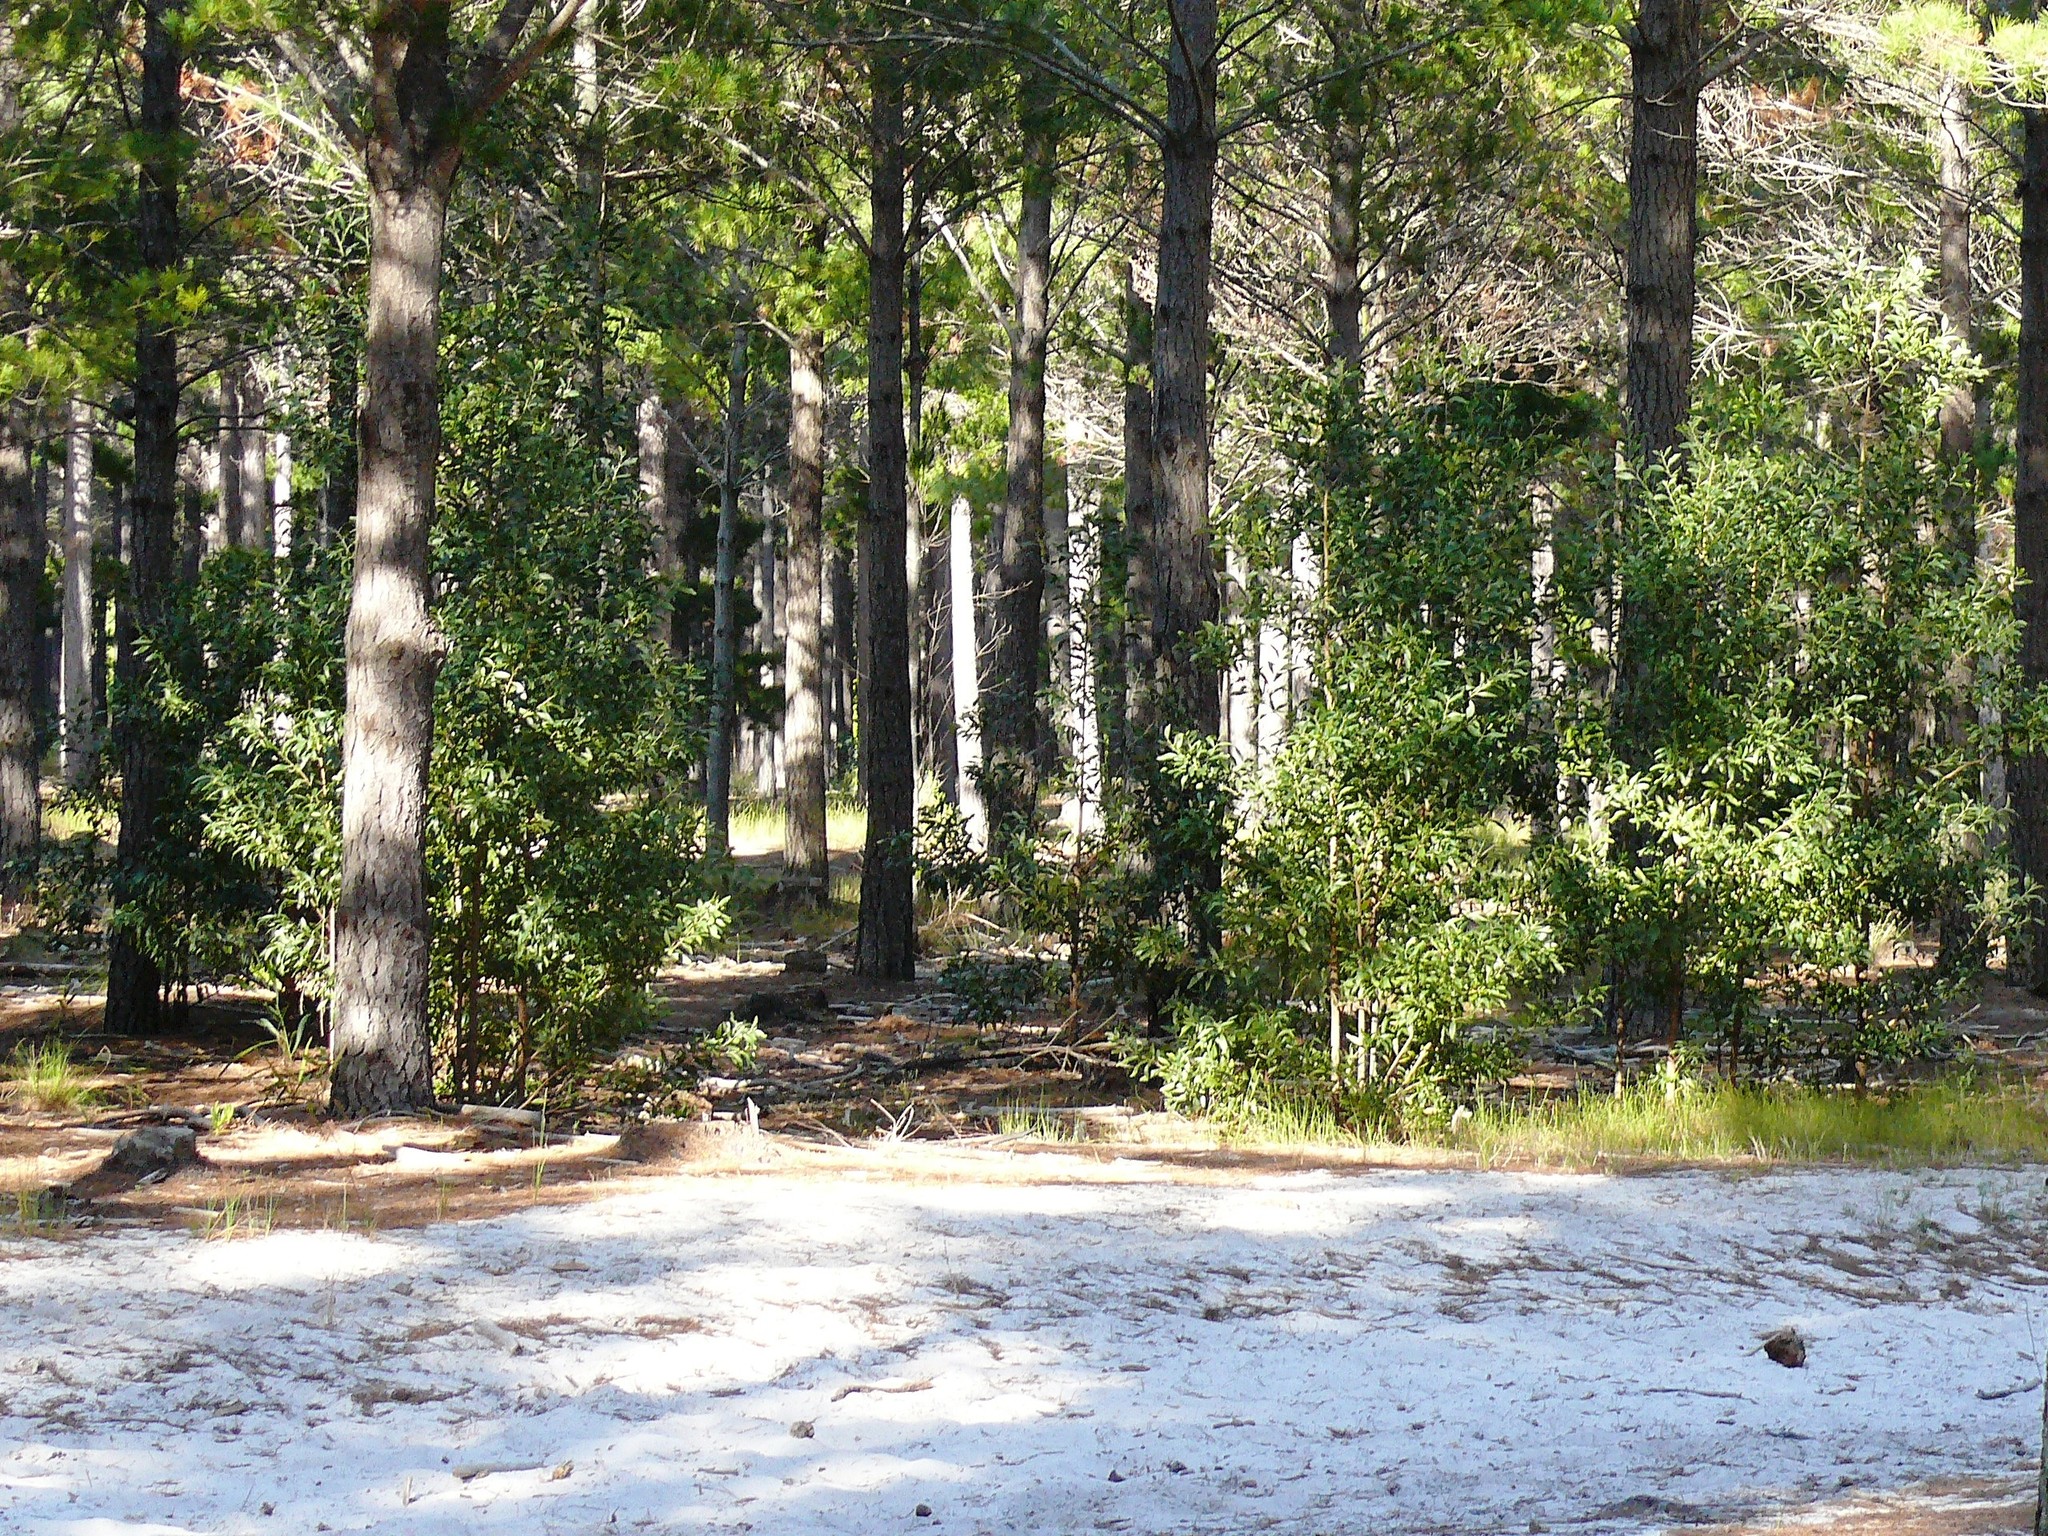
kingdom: Plantae
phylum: Tracheophyta
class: Magnoliopsida
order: Fabales
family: Fabaceae
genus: Acacia
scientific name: Acacia melanoxylon
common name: Blackwood
